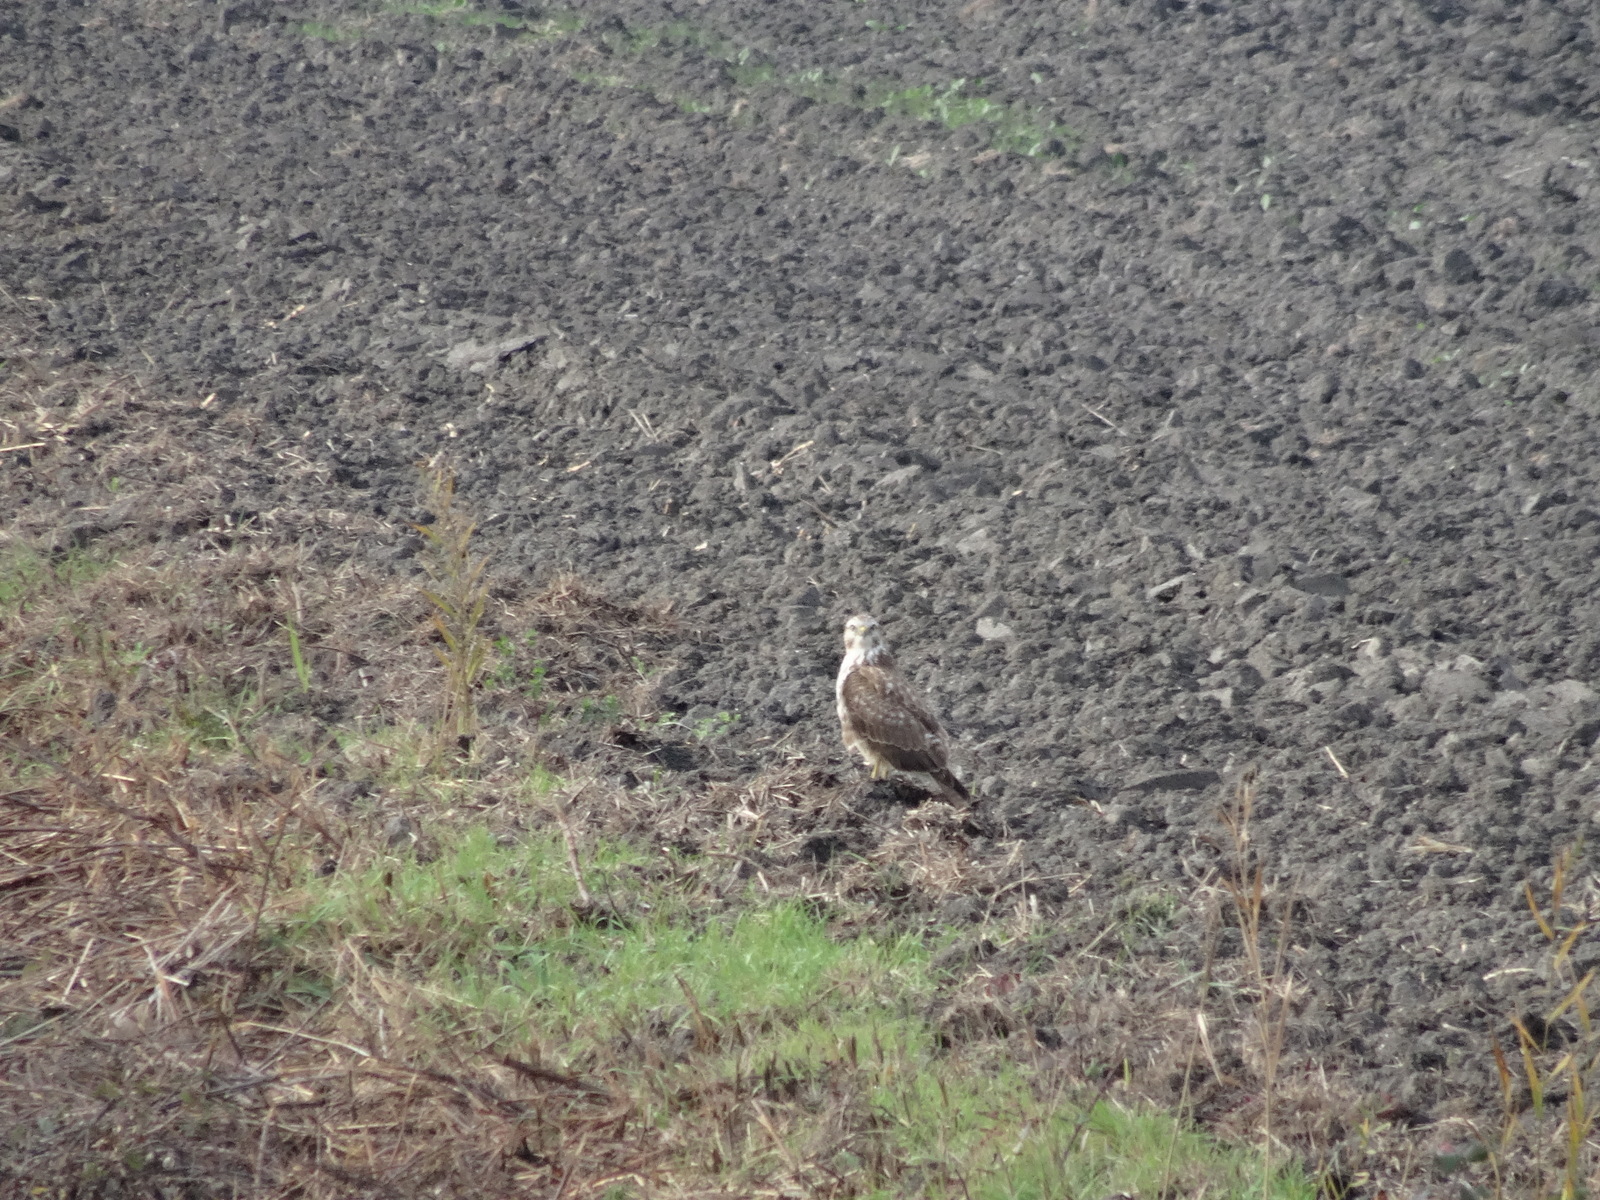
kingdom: Animalia
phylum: Chordata
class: Aves
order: Accipitriformes
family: Accipitridae
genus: Buteo
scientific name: Buteo buteo
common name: Common buzzard
